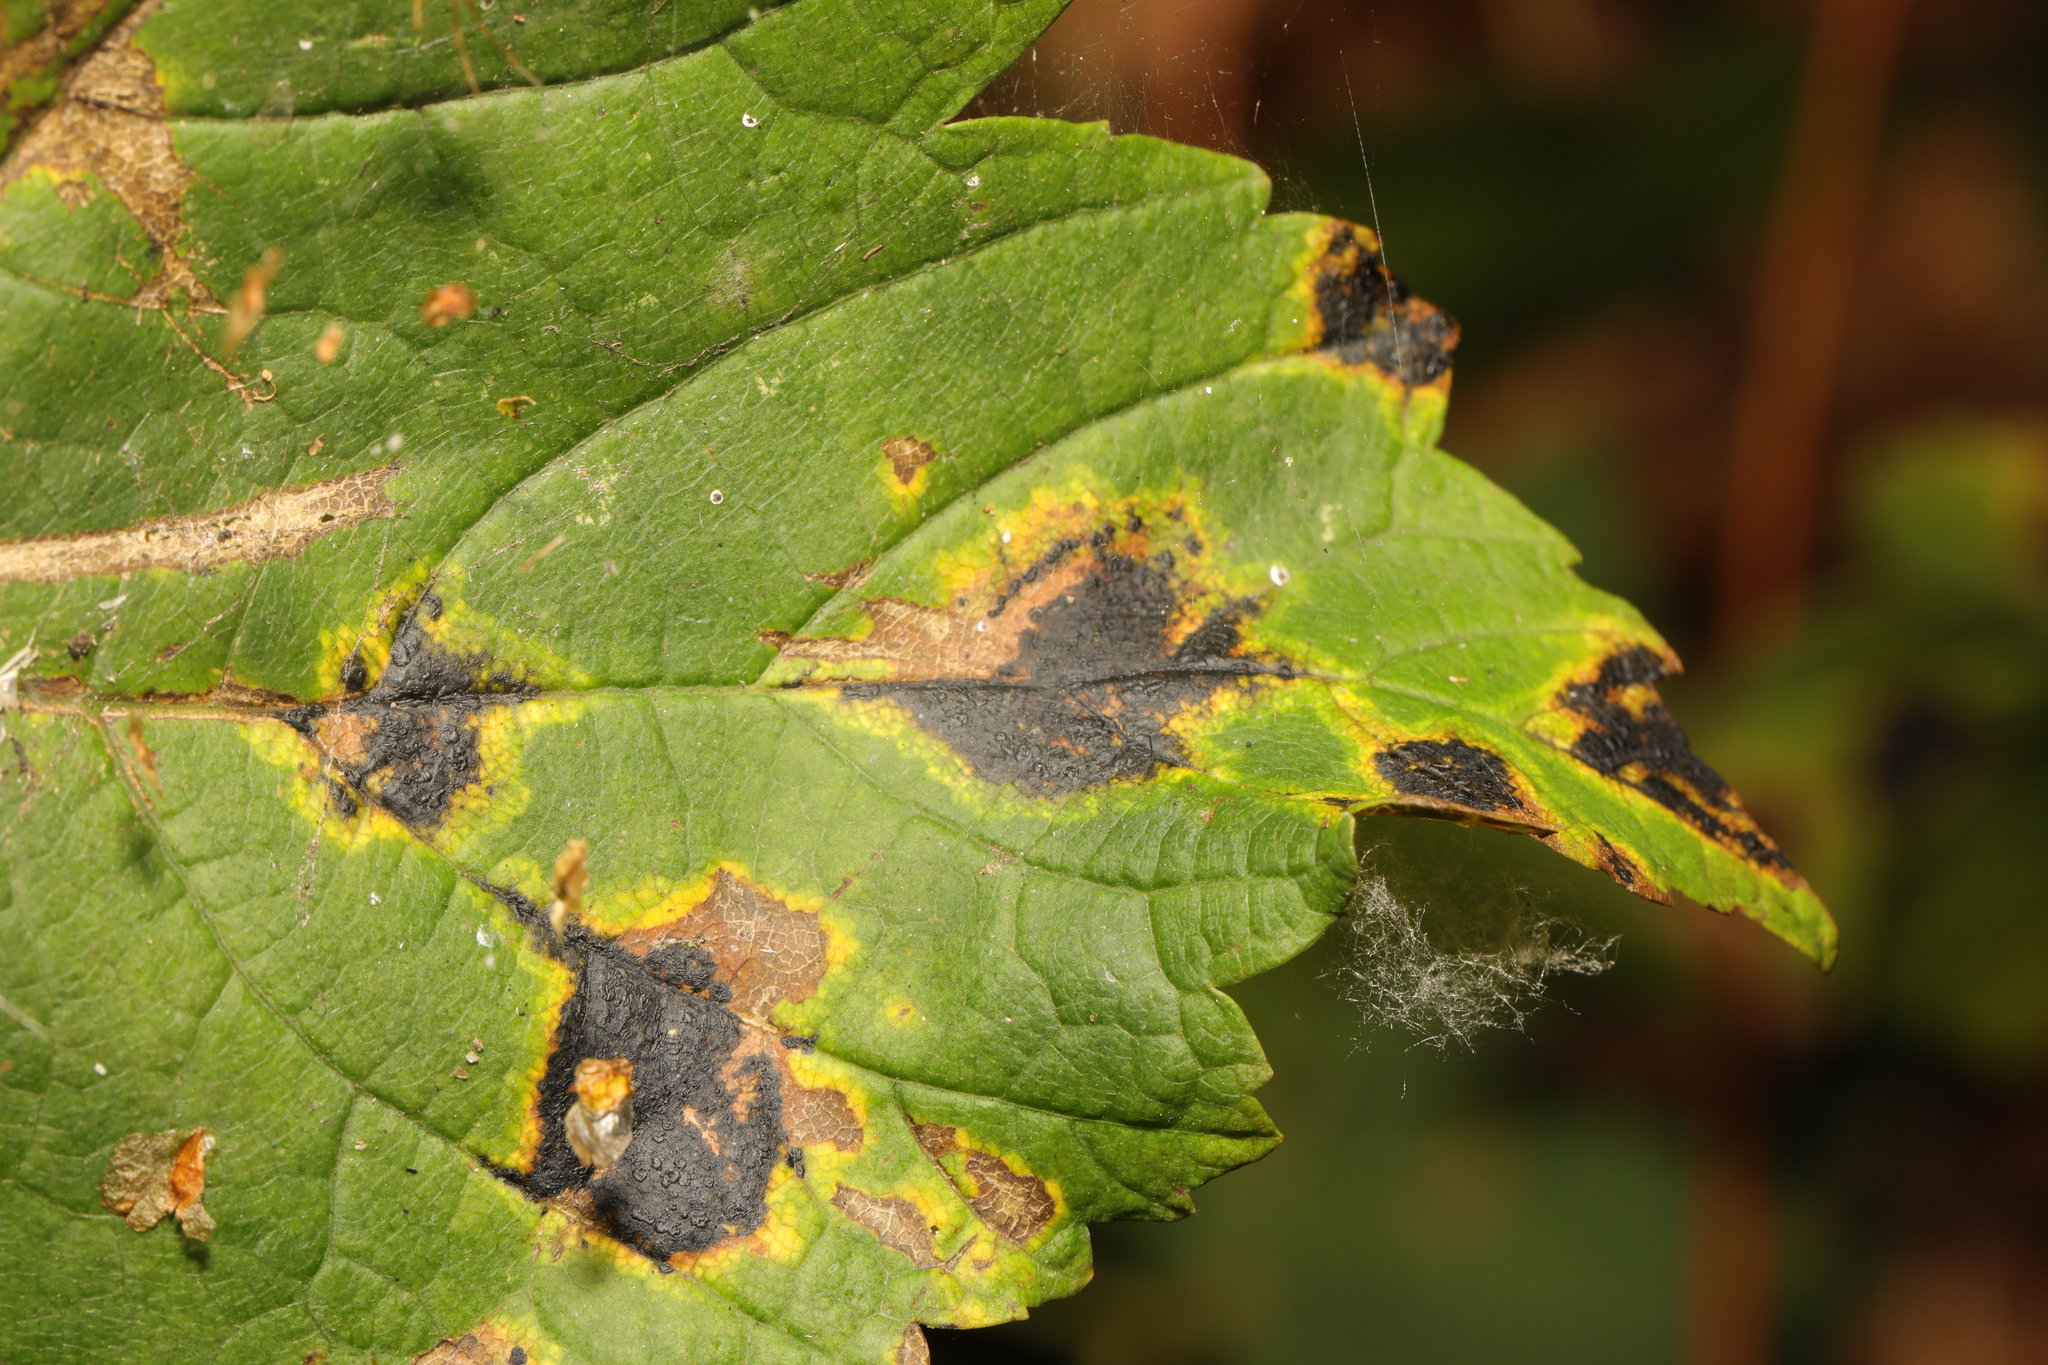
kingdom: Fungi
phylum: Ascomycota
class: Leotiomycetes
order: Rhytismatales
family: Rhytismataceae
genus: Rhytisma
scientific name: Rhytisma acerinum
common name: European tar spot
